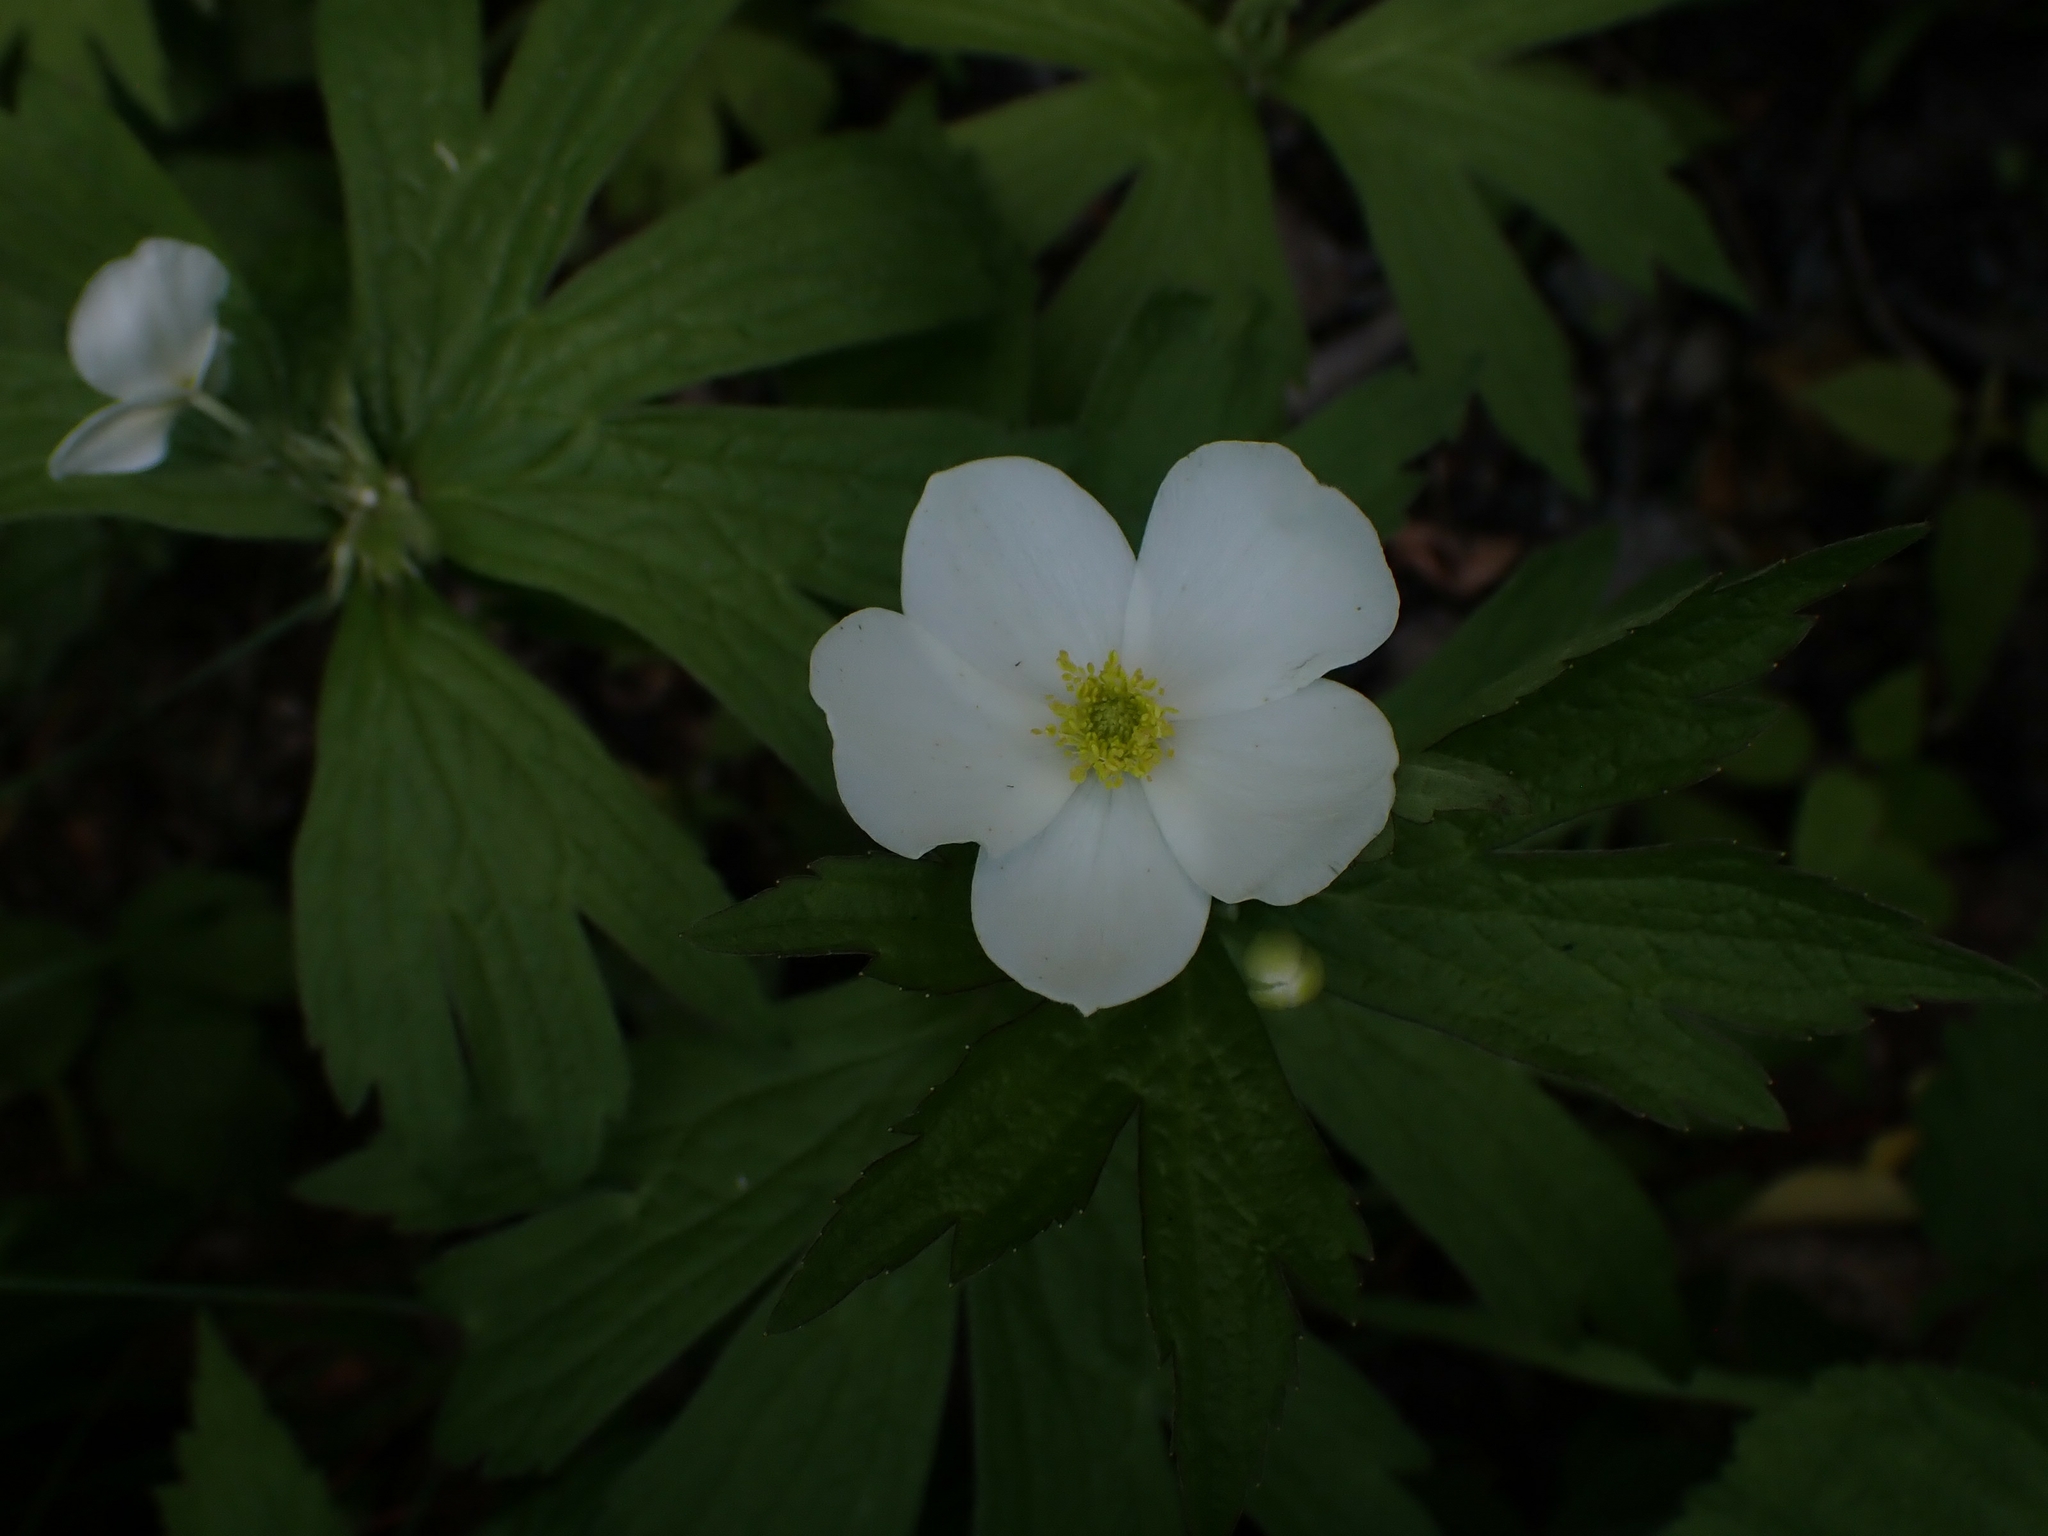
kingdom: Plantae
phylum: Tracheophyta
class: Magnoliopsida
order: Ranunculales
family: Ranunculaceae
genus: Anemonastrum
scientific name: Anemonastrum canadense
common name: Canada anemone
